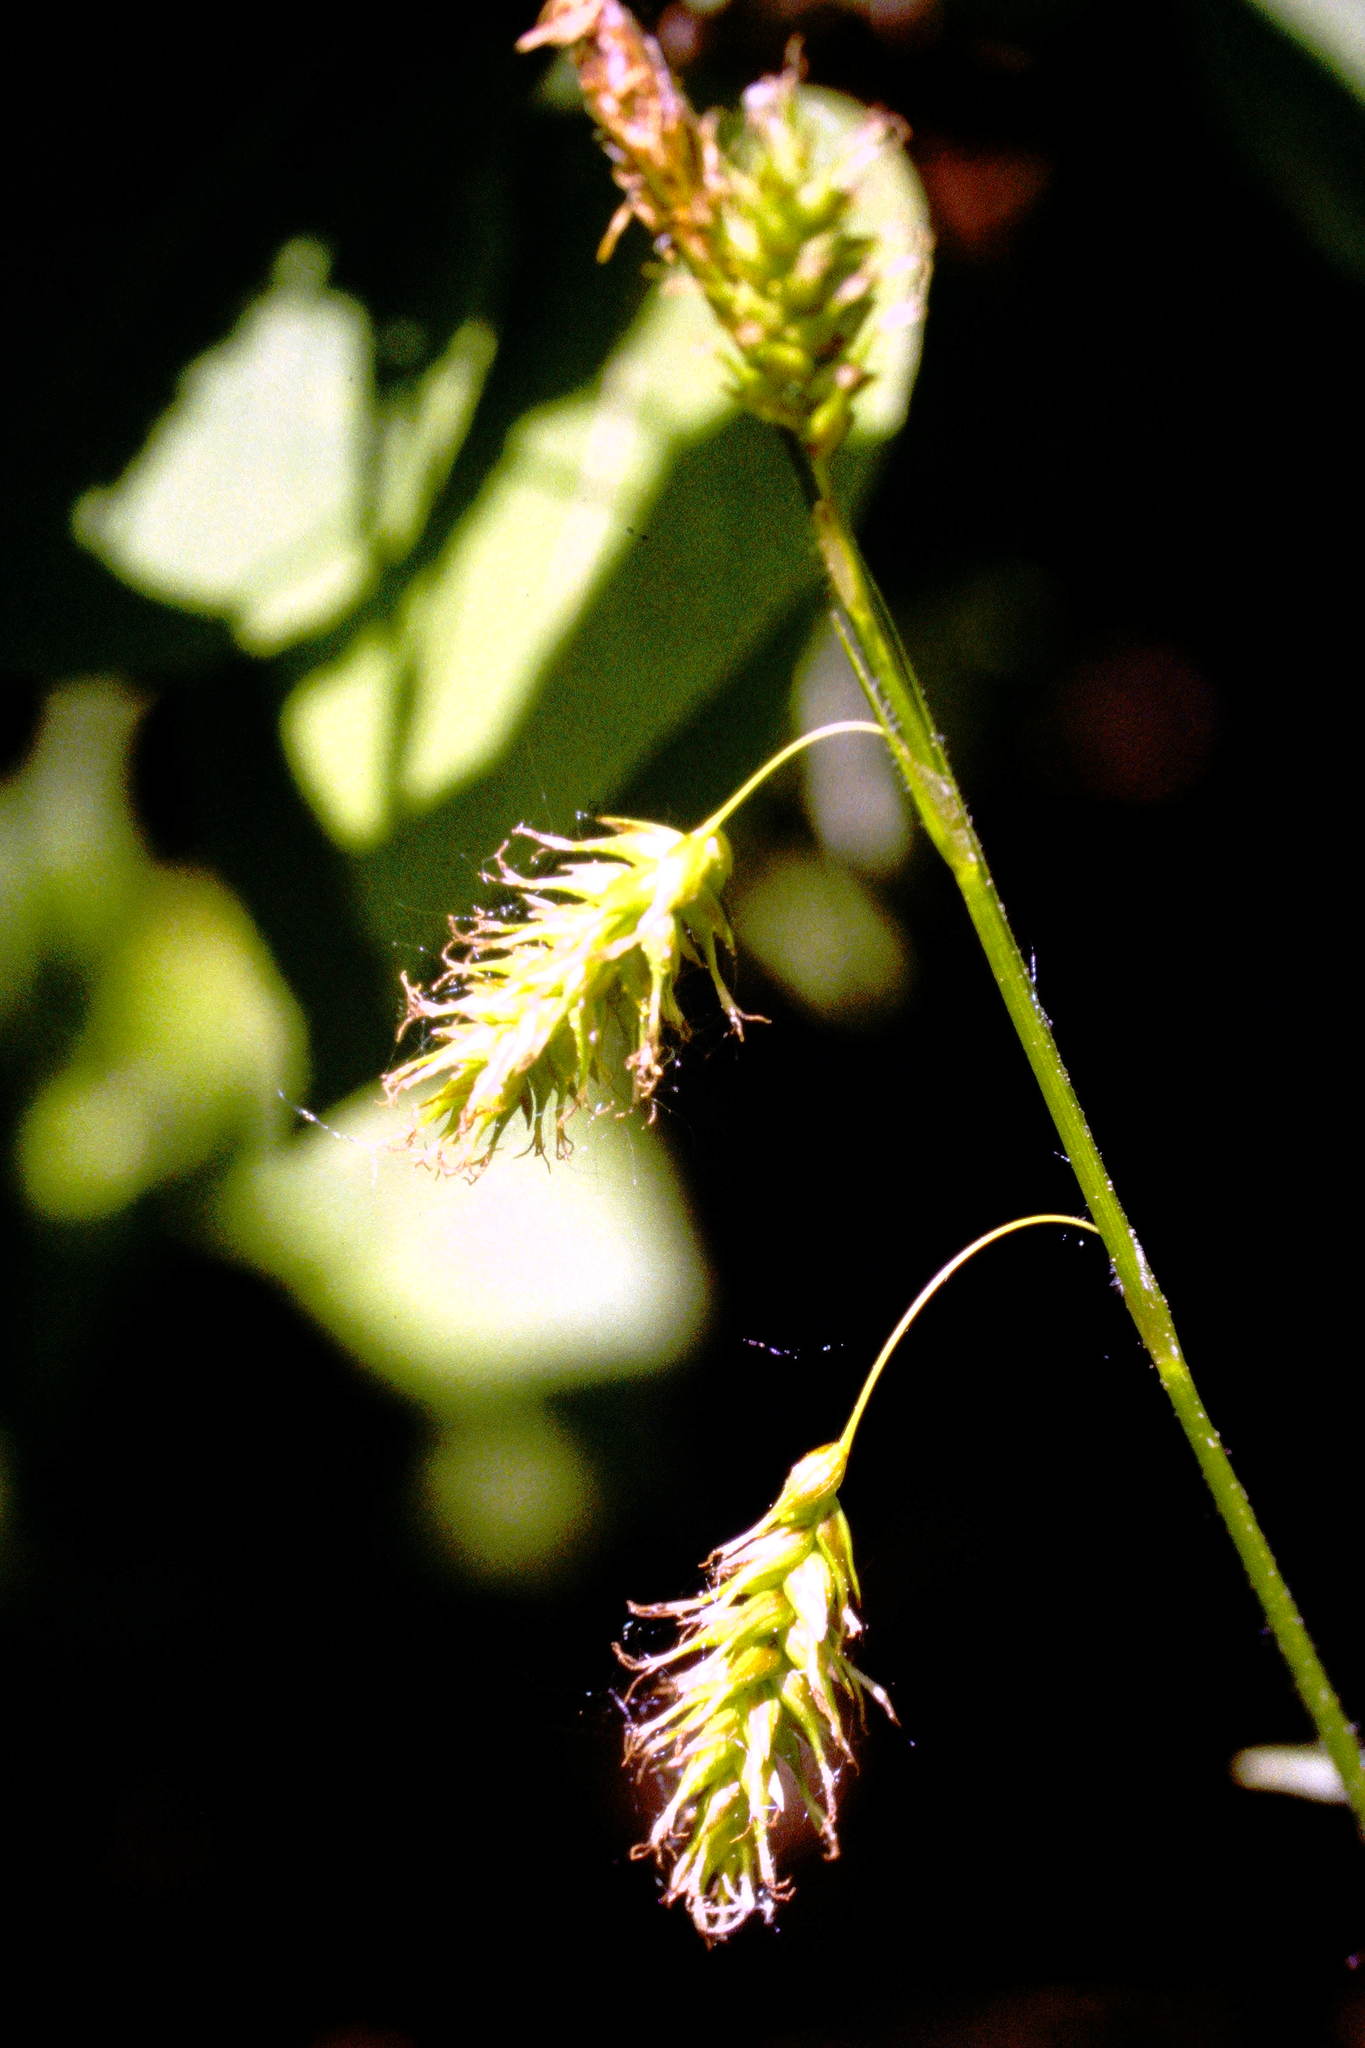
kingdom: Plantae
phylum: Tracheophyta
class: Liliopsida
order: Poales
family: Cyperaceae
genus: Carex
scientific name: Carex castanea
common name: Chestnut sedge
